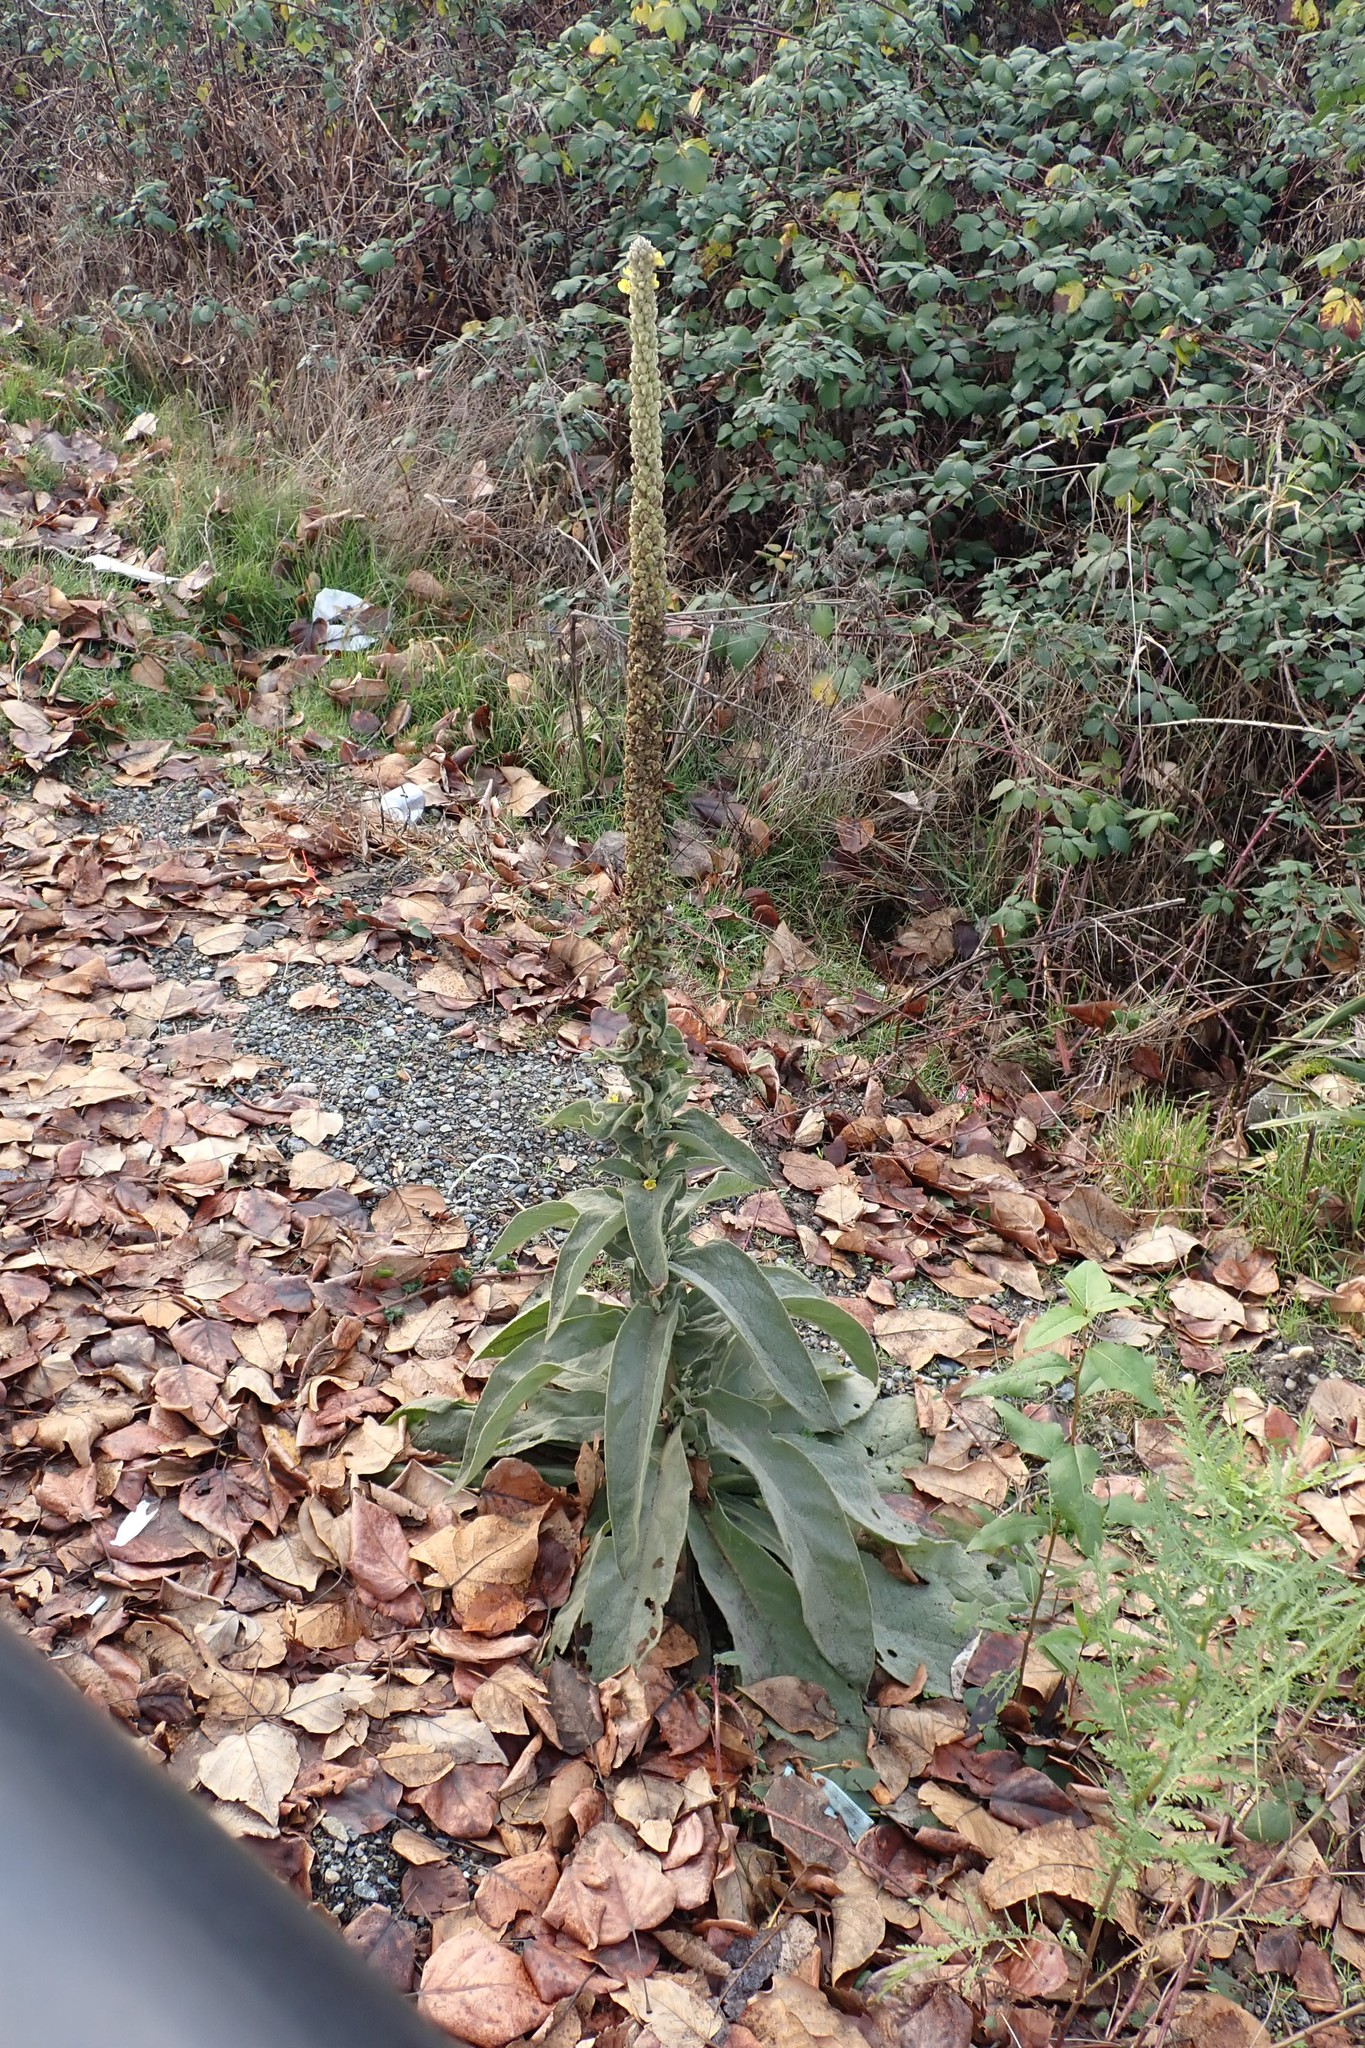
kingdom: Plantae
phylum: Tracheophyta
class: Magnoliopsida
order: Lamiales
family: Scrophulariaceae
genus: Verbascum
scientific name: Verbascum thapsus
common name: Common mullein
